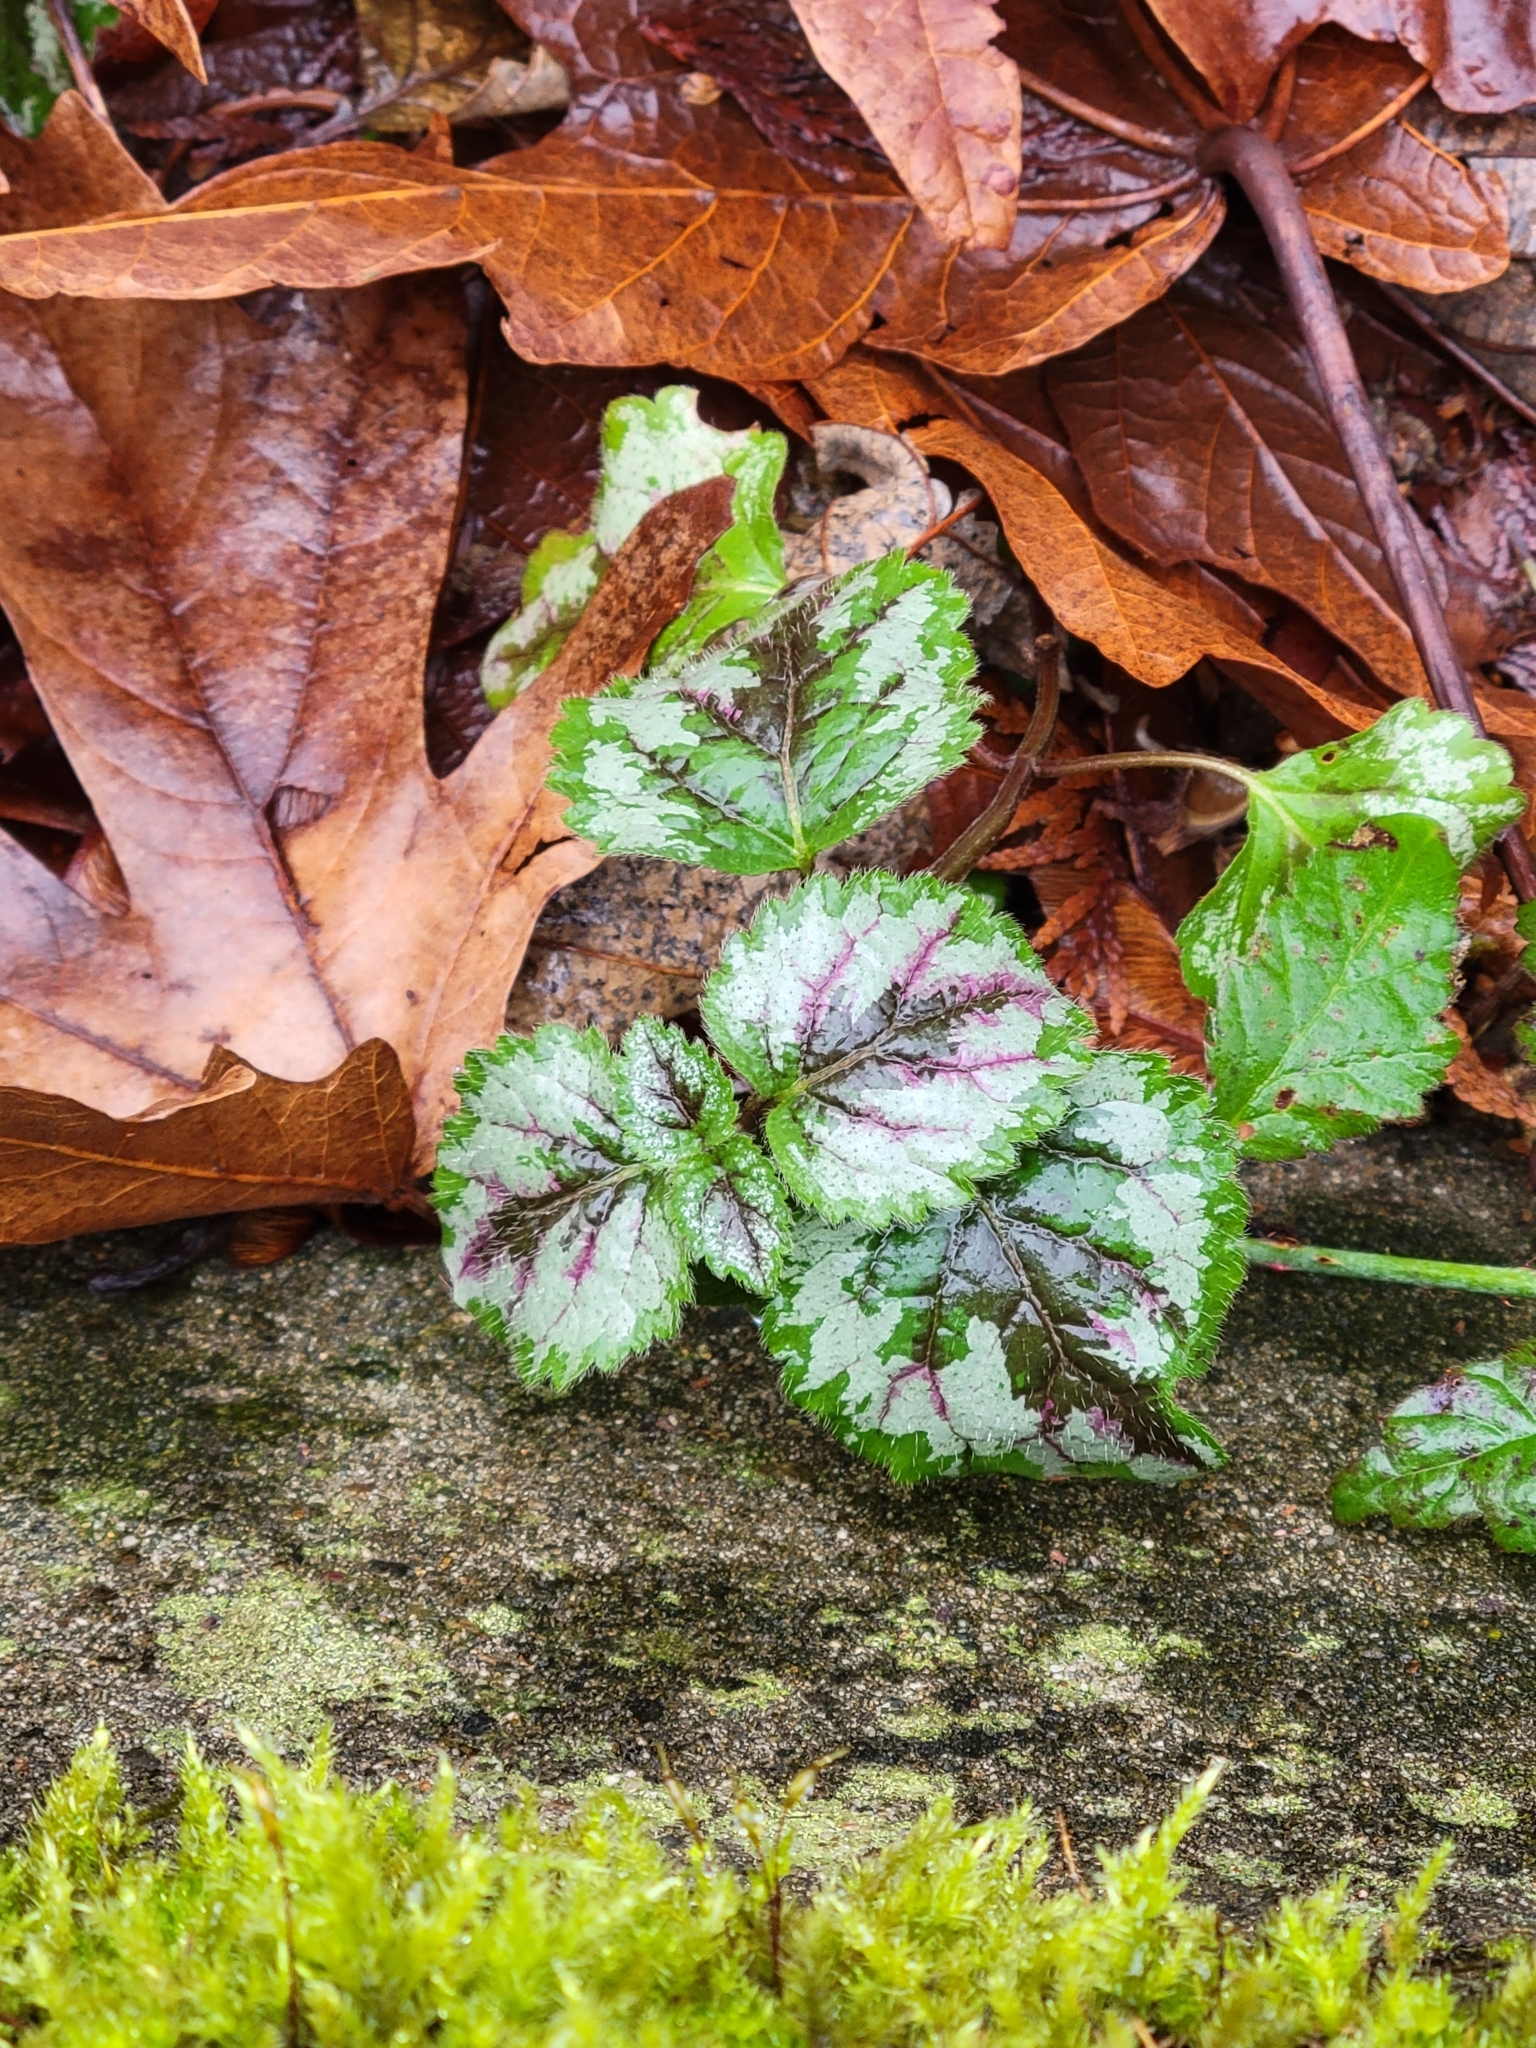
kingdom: Plantae
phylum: Tracheophyta
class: Magnoliopsida
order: Lamiales
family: Lamiaceae
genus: Lamium
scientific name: Lamium galeobdolon
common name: Yellow archangel
